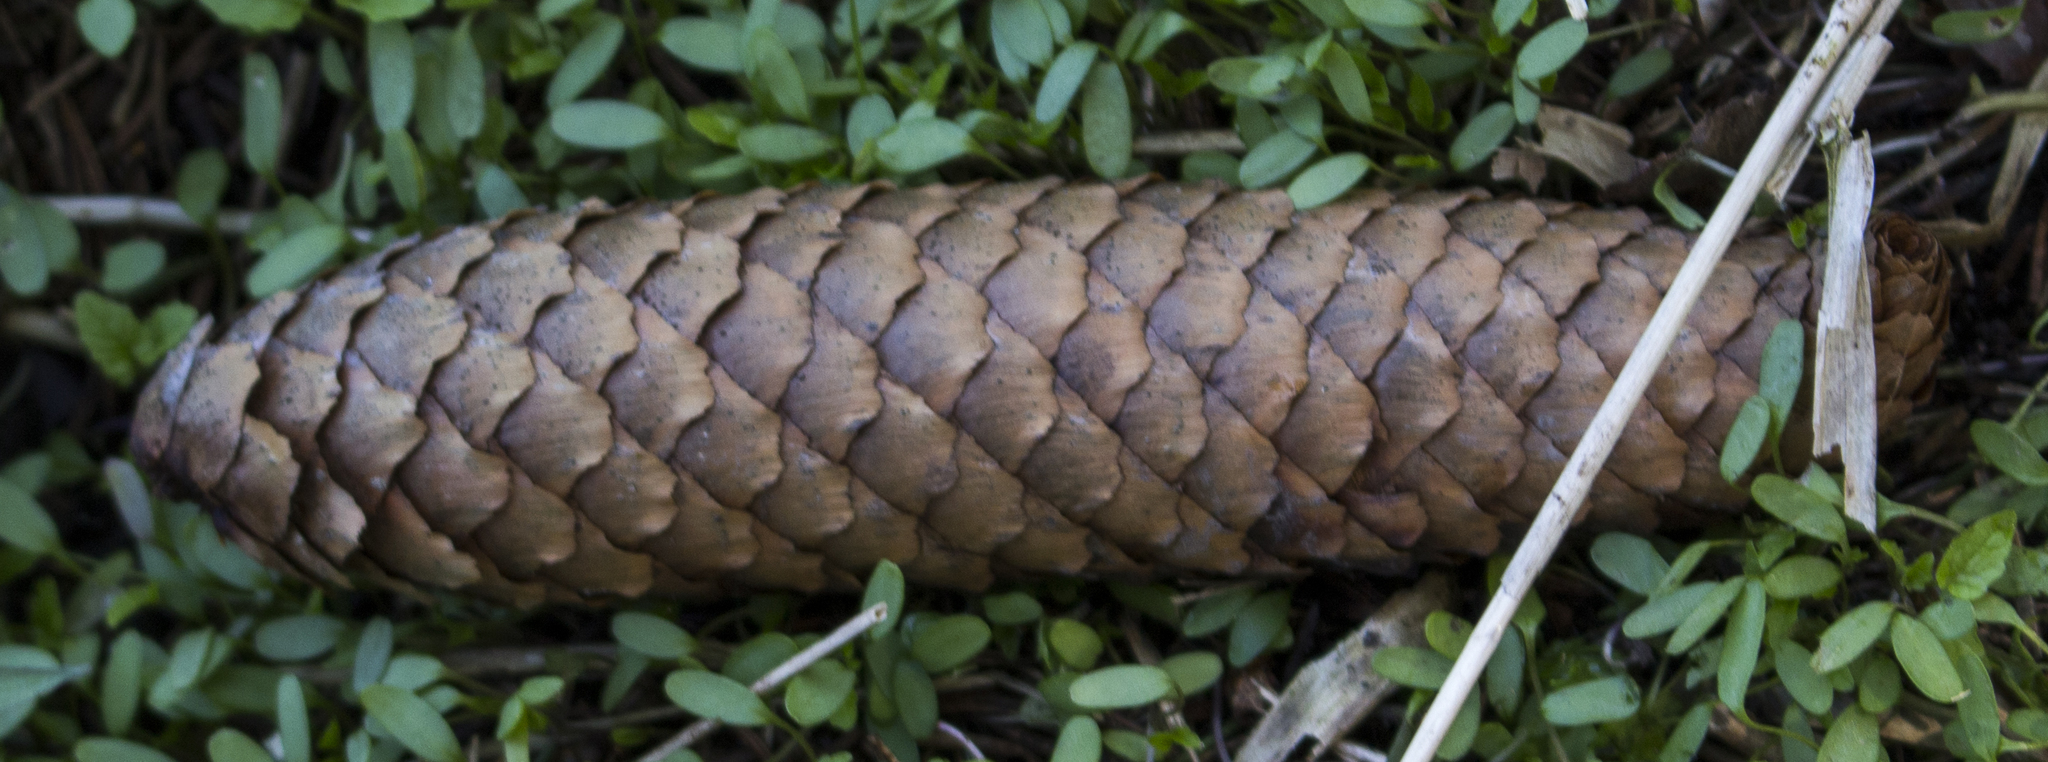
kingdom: Plantae
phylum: Tracheophyta
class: Pinopsida
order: Pinales
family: Pinaceae
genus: Picea
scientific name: Picea abies
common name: Norway spruce
